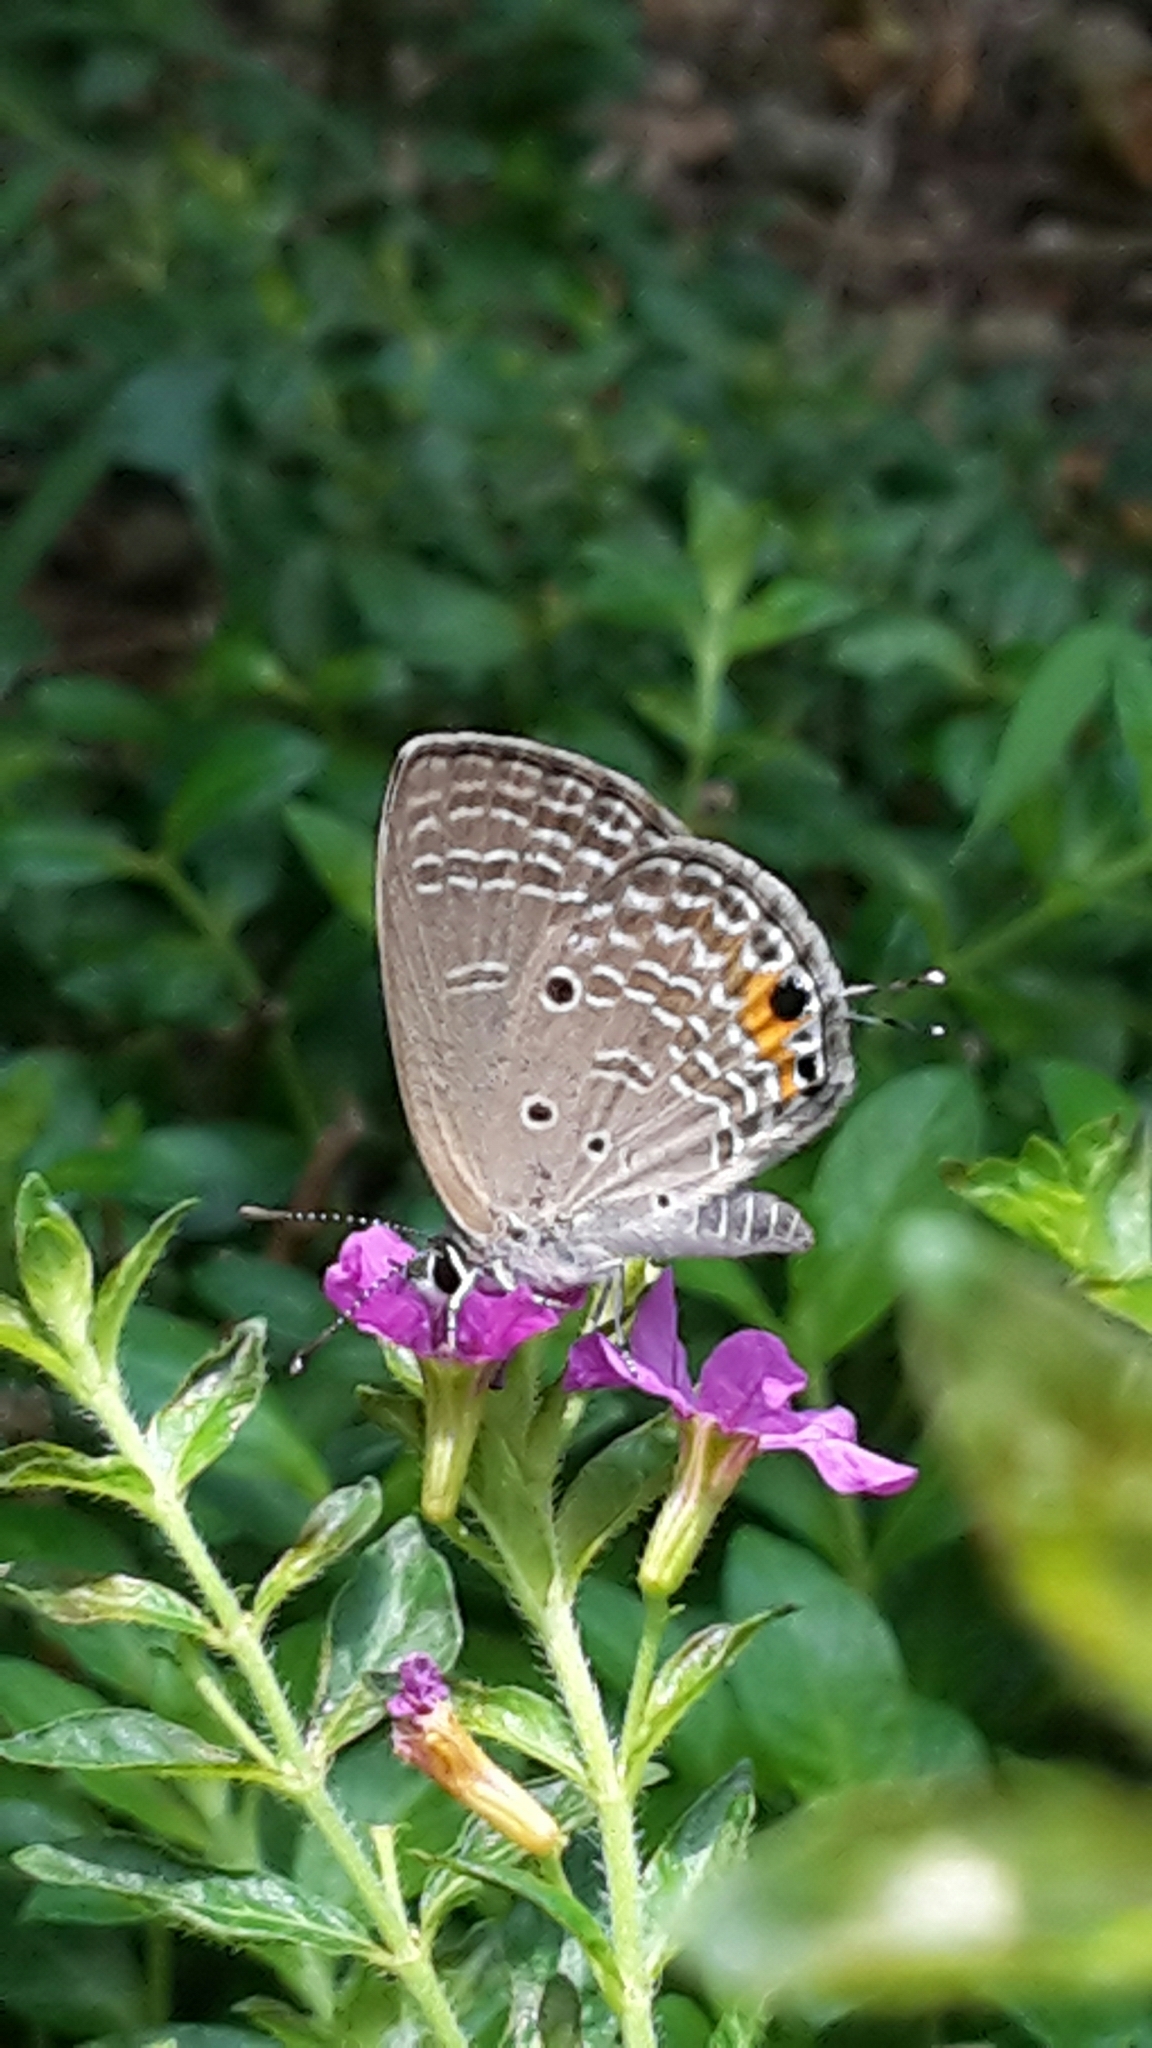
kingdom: Animalia
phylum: Arthropoda
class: Insecta
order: Lepidoptera
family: Lycaenidae
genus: Luthrodes
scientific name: Luthrodes pandava
